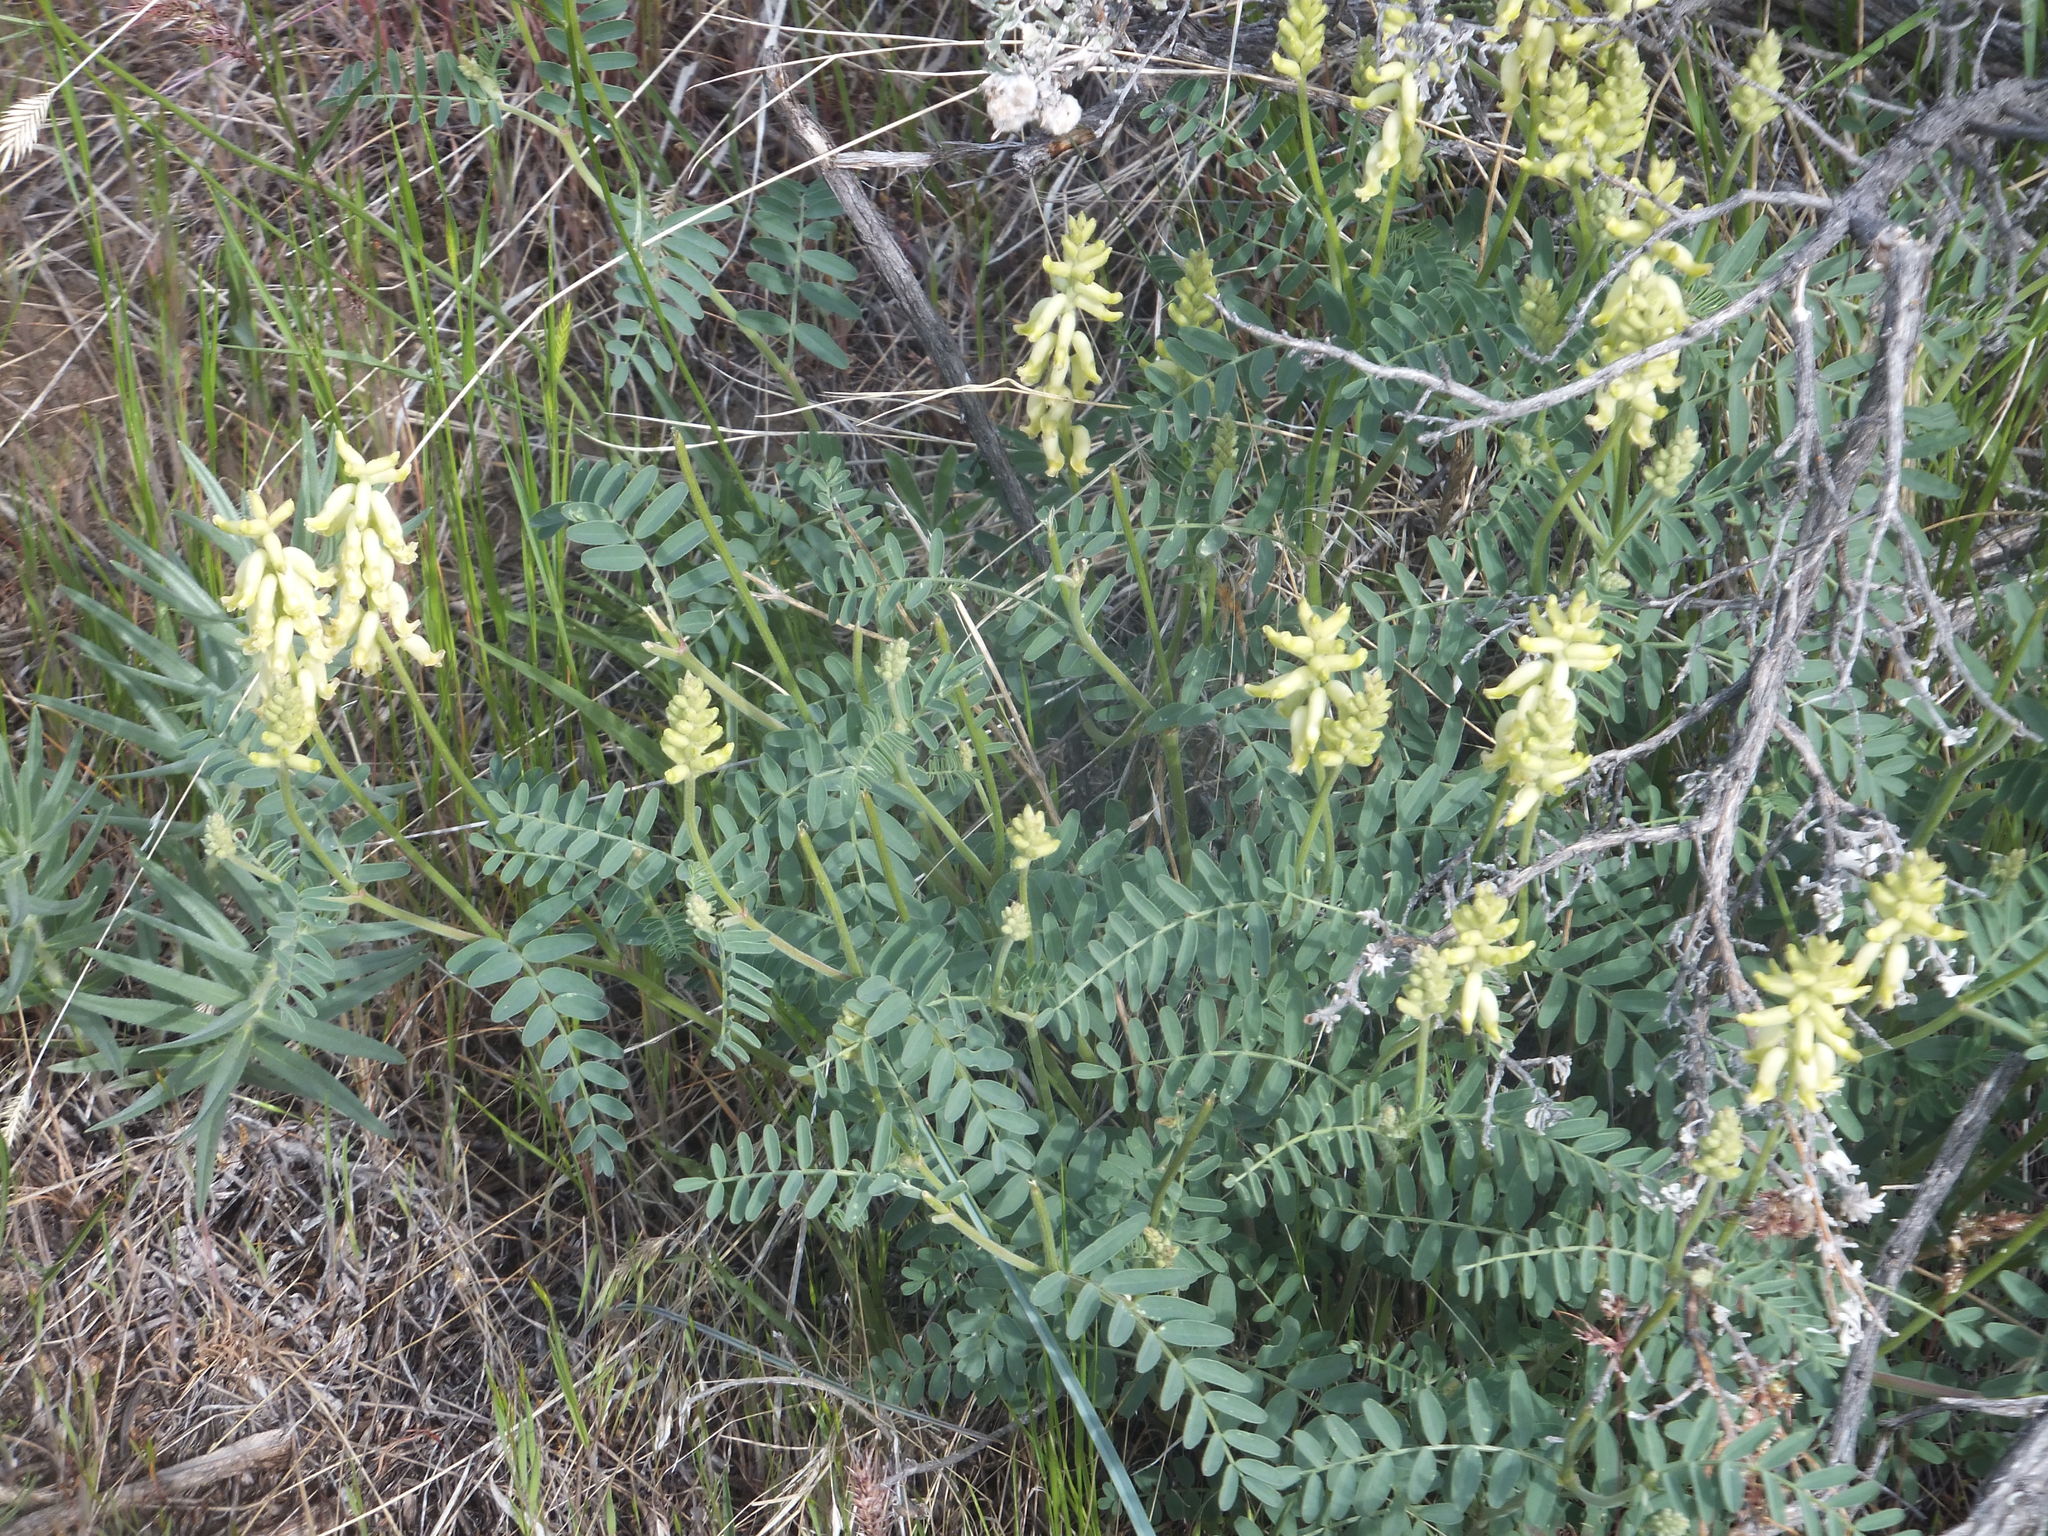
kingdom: Plantae
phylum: Tracheophyta
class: Magnoliopsida
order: Fabales
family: Fabaceae
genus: Astragalus
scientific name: Astragalus collinus
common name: Hill milk-vetch
